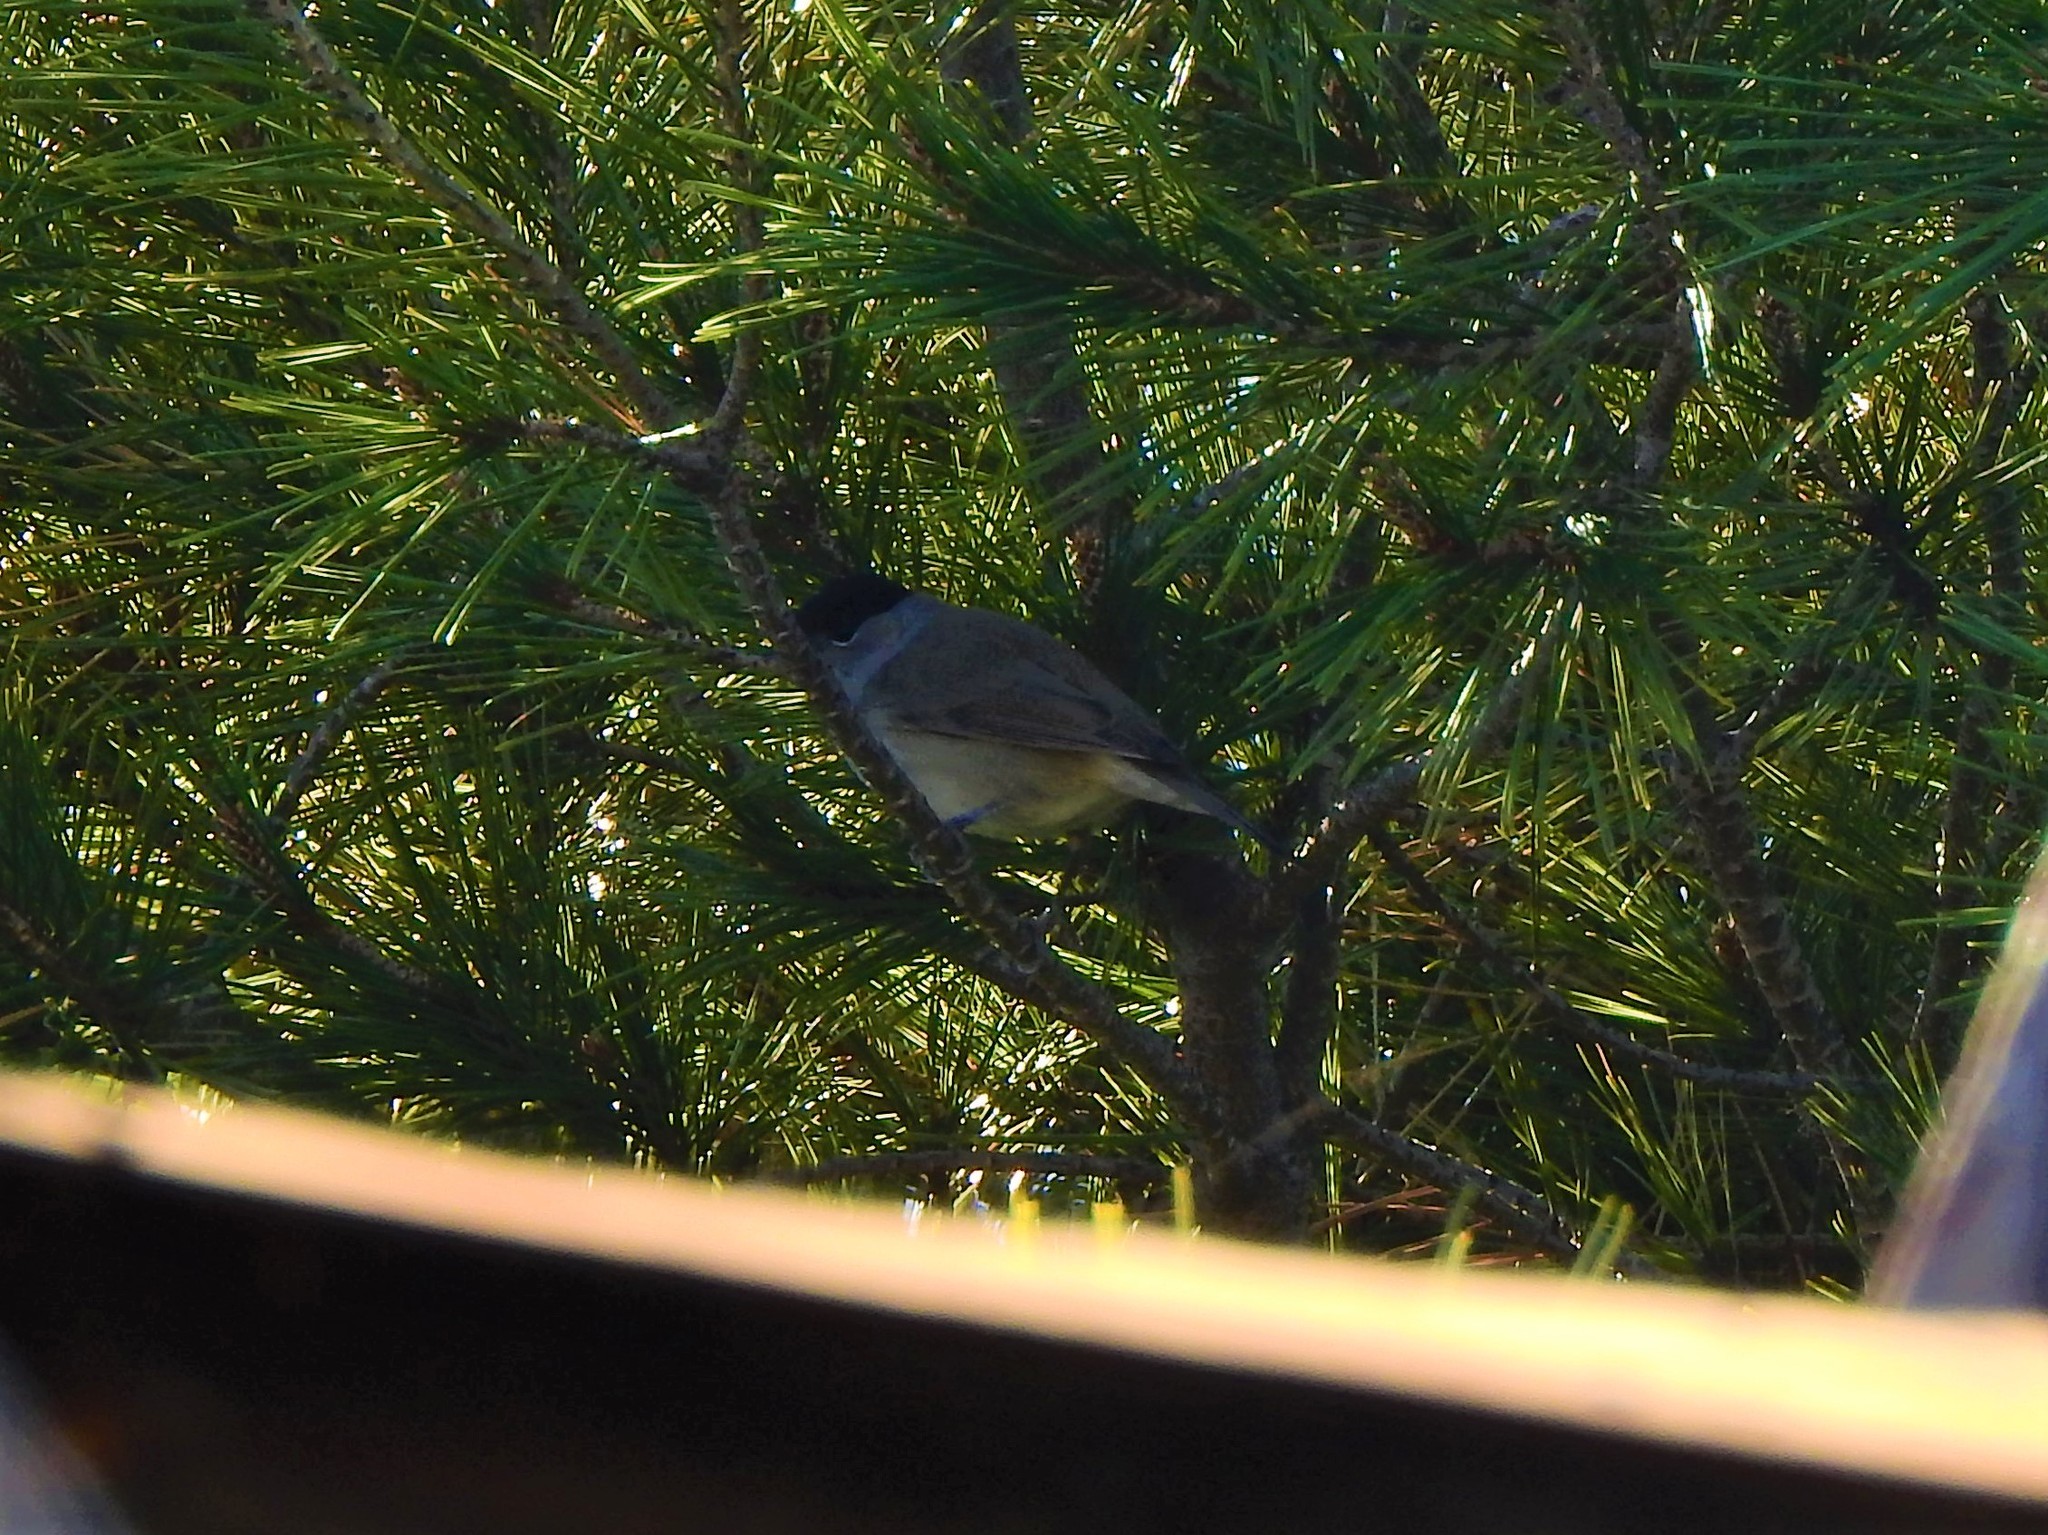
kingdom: Animalia
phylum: Chordata
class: Aves
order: Passeriformes
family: Sylviidae
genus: Sylvia
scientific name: Sylvia atricapilla
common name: Eurasian blackcap
